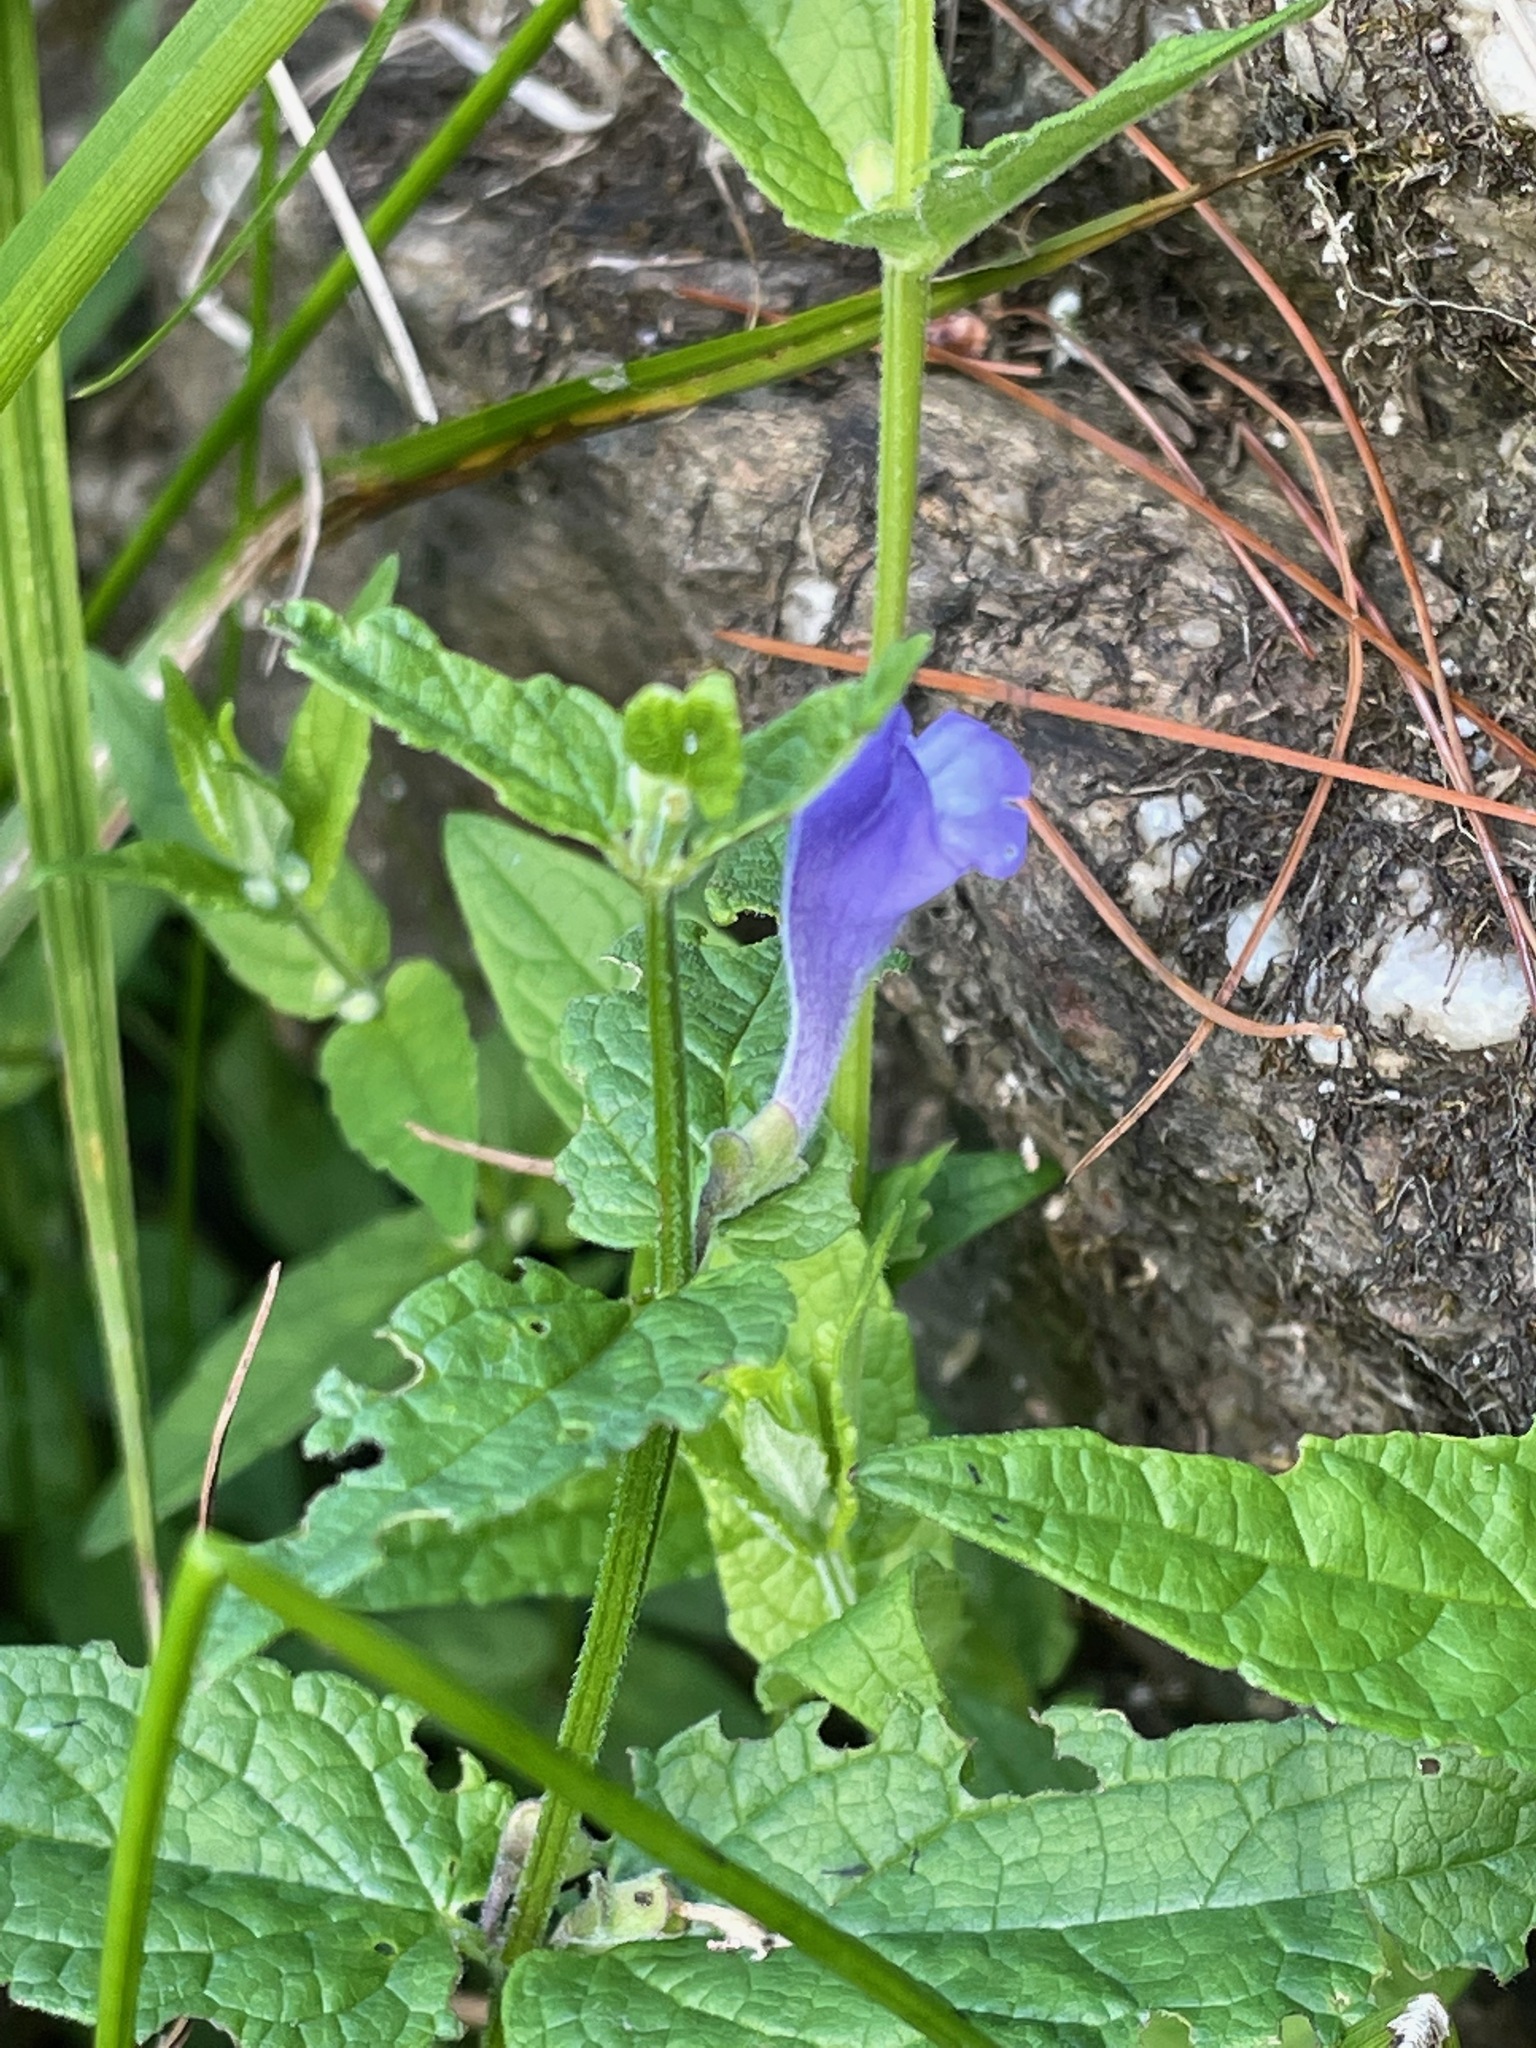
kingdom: Plantae
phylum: Tracheophyta
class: Magnoliopsida
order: Lamiales
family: Lamiaceae
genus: Scutellaria
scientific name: Scutellaria galericulata
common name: Skullcap
